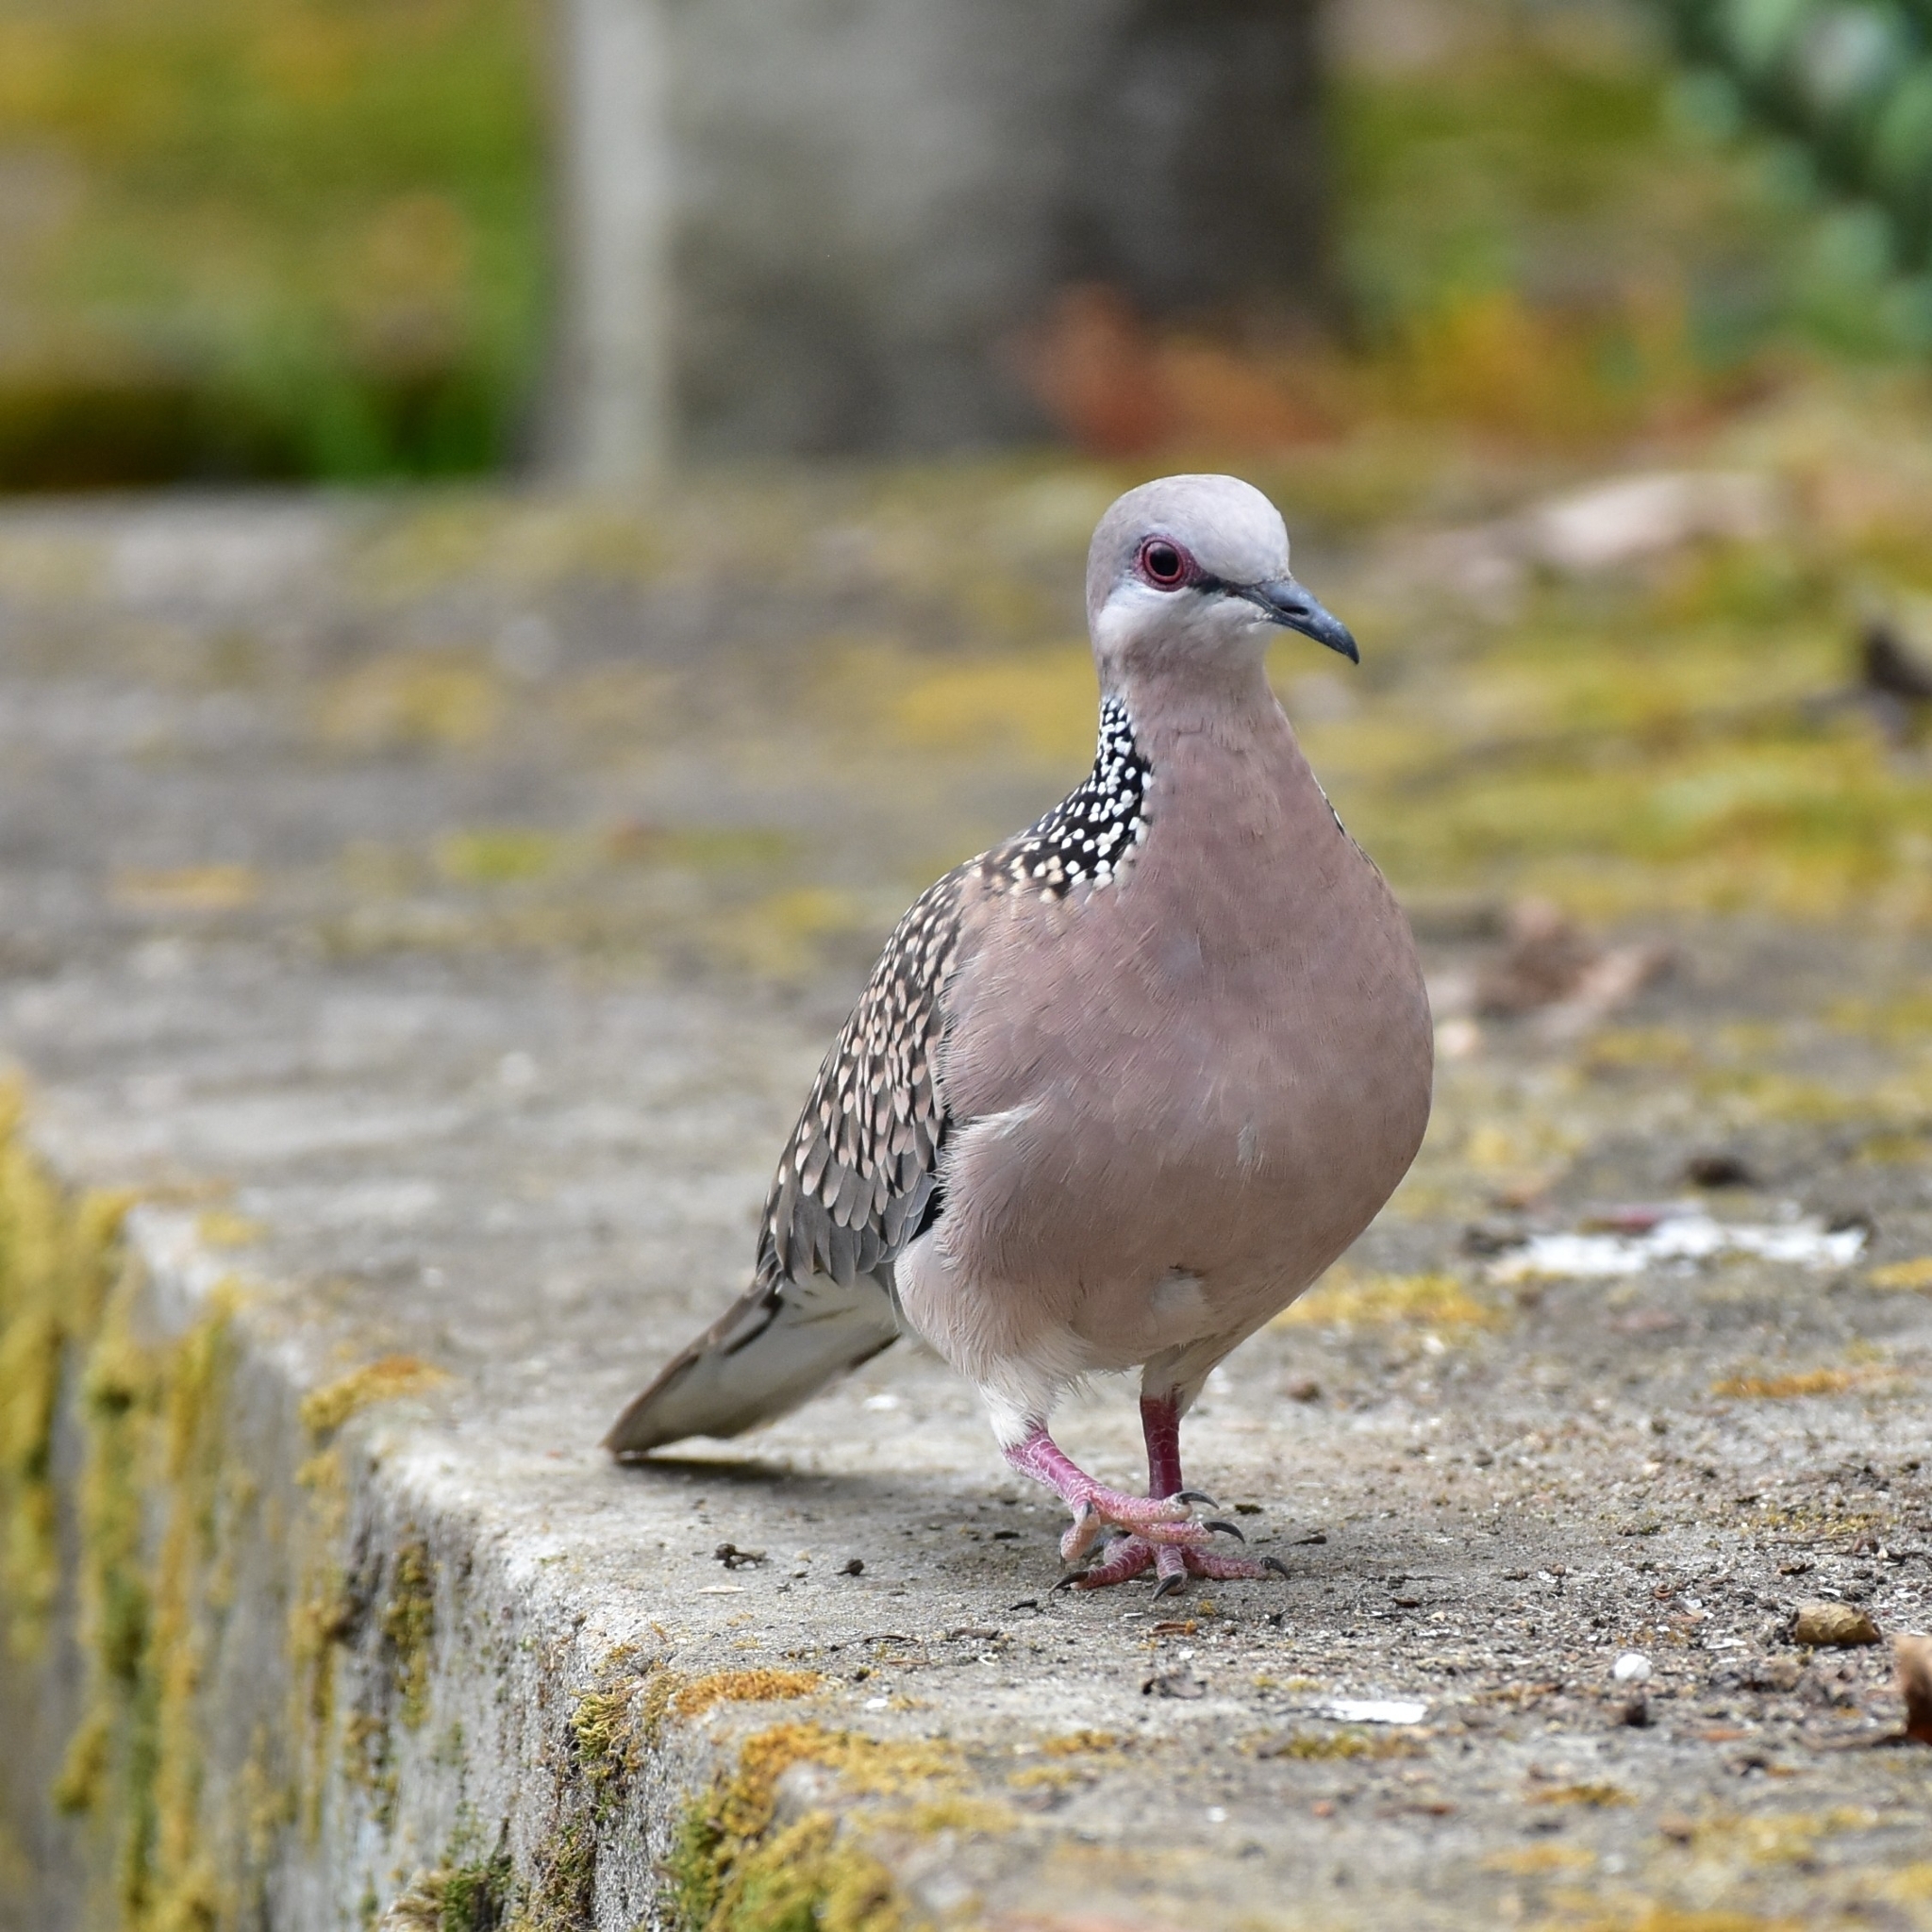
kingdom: Animalia
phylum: Chordata
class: Aves
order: Columbiformes
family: Columbidae
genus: Spilopelia
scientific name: Spilopelia chinensis
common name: Spotted dove
